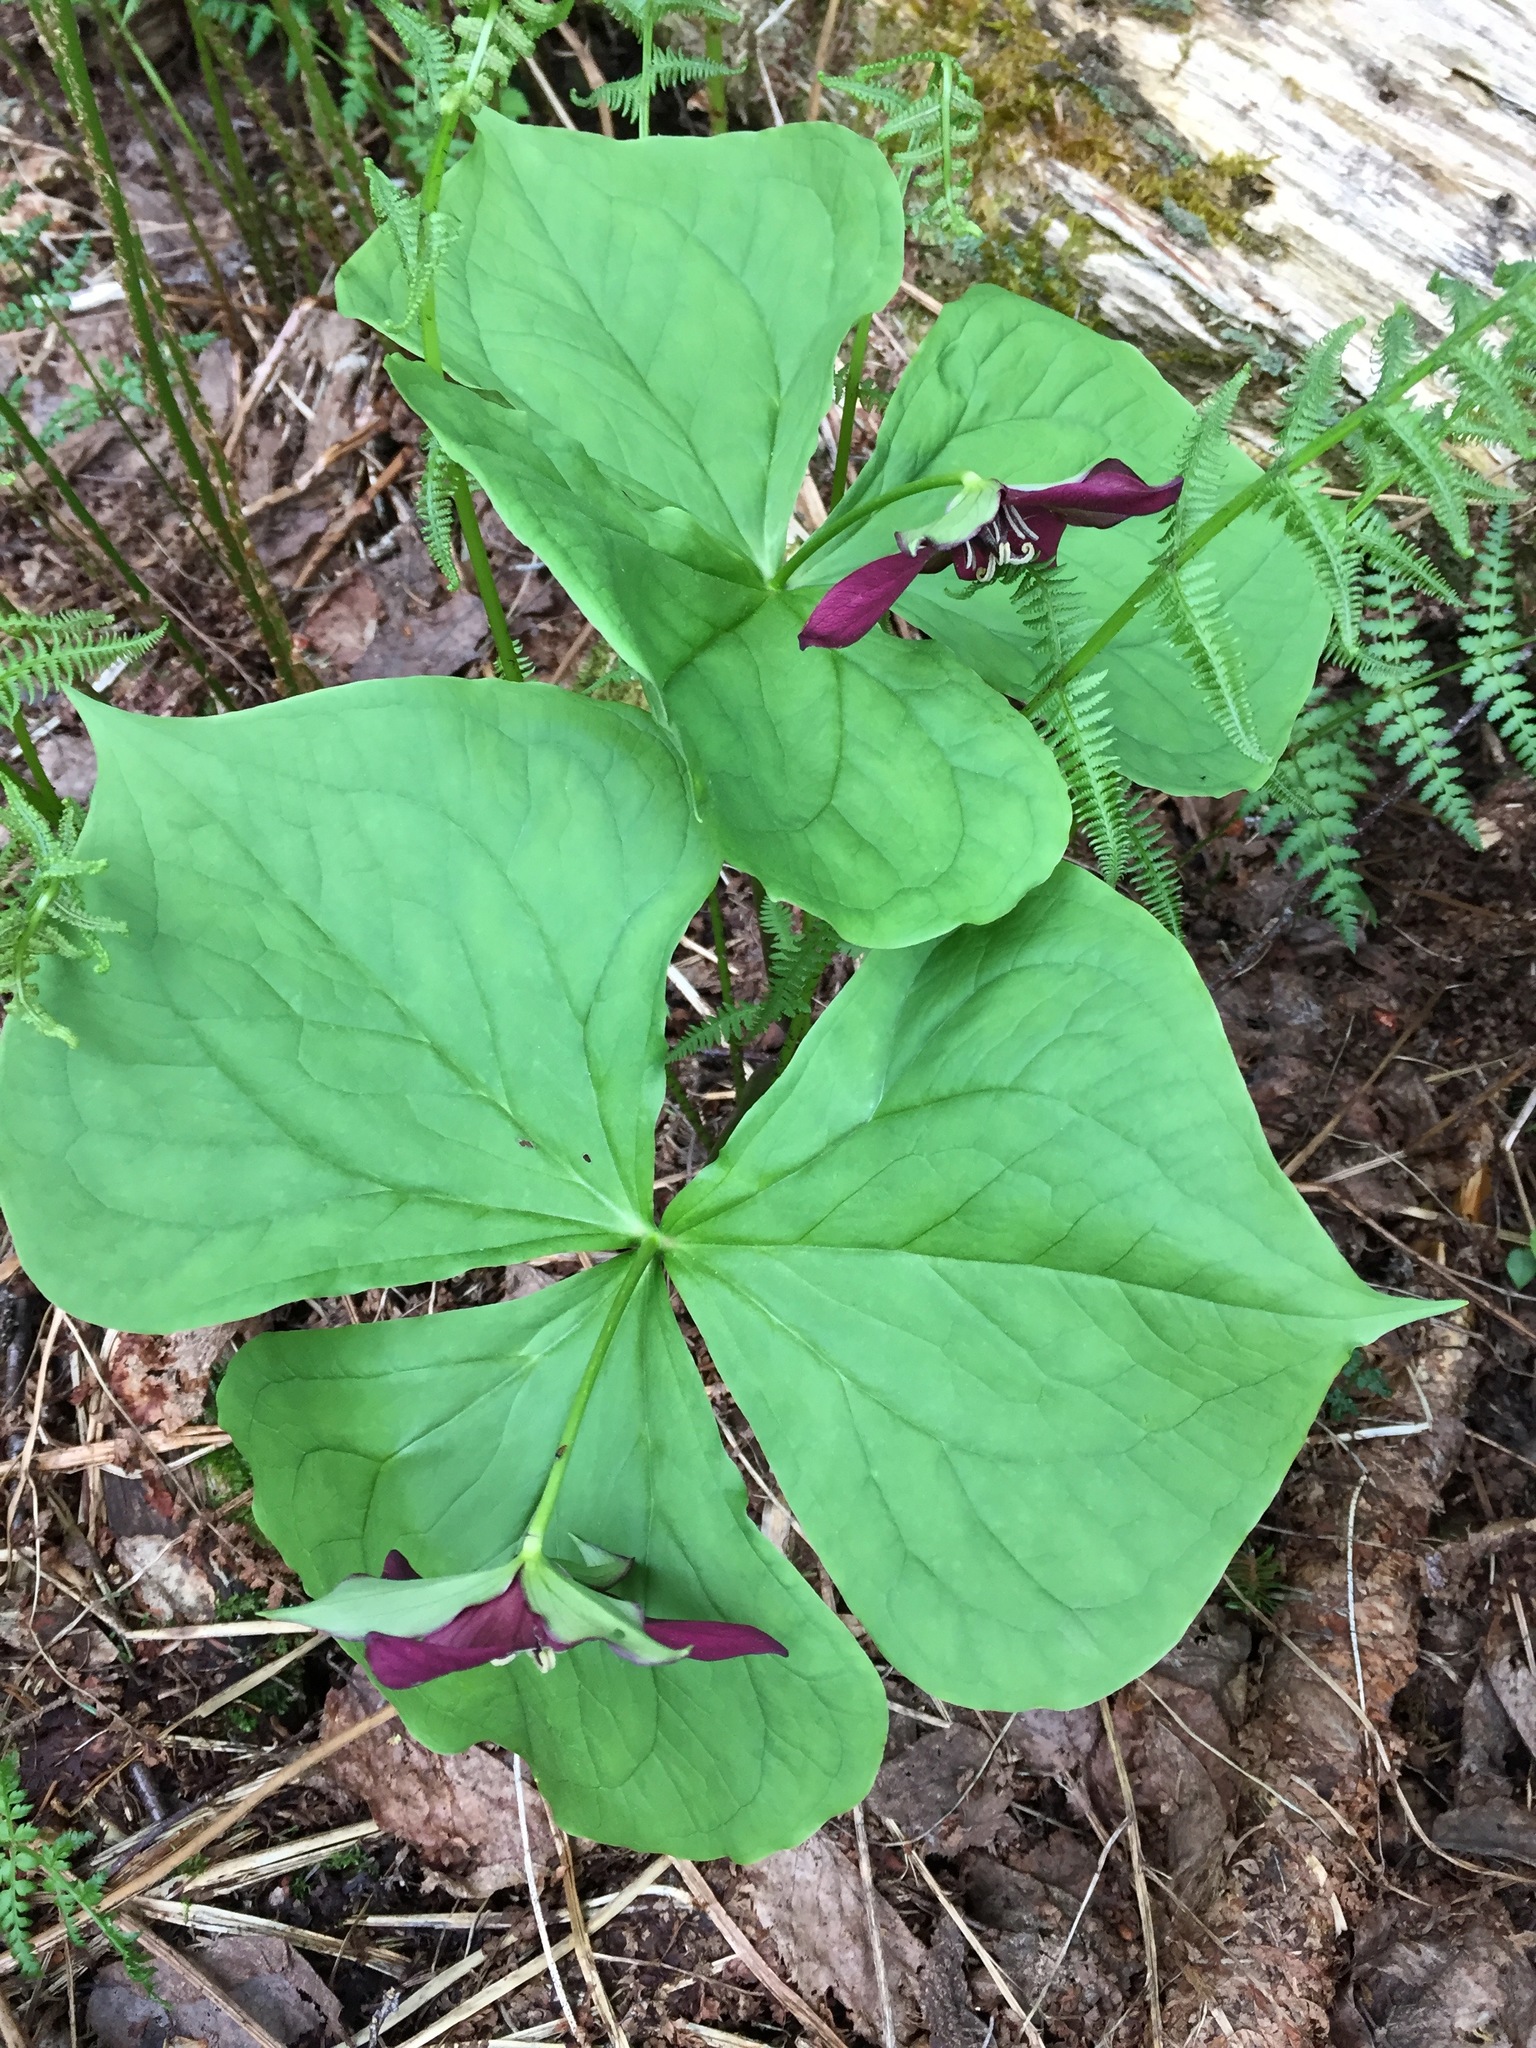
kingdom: Plantae
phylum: Tracheophyta
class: Liliopsida
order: Liliales
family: Melanthiaceae
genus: Trillium
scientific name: Trillium erectum
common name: Purple trillium
